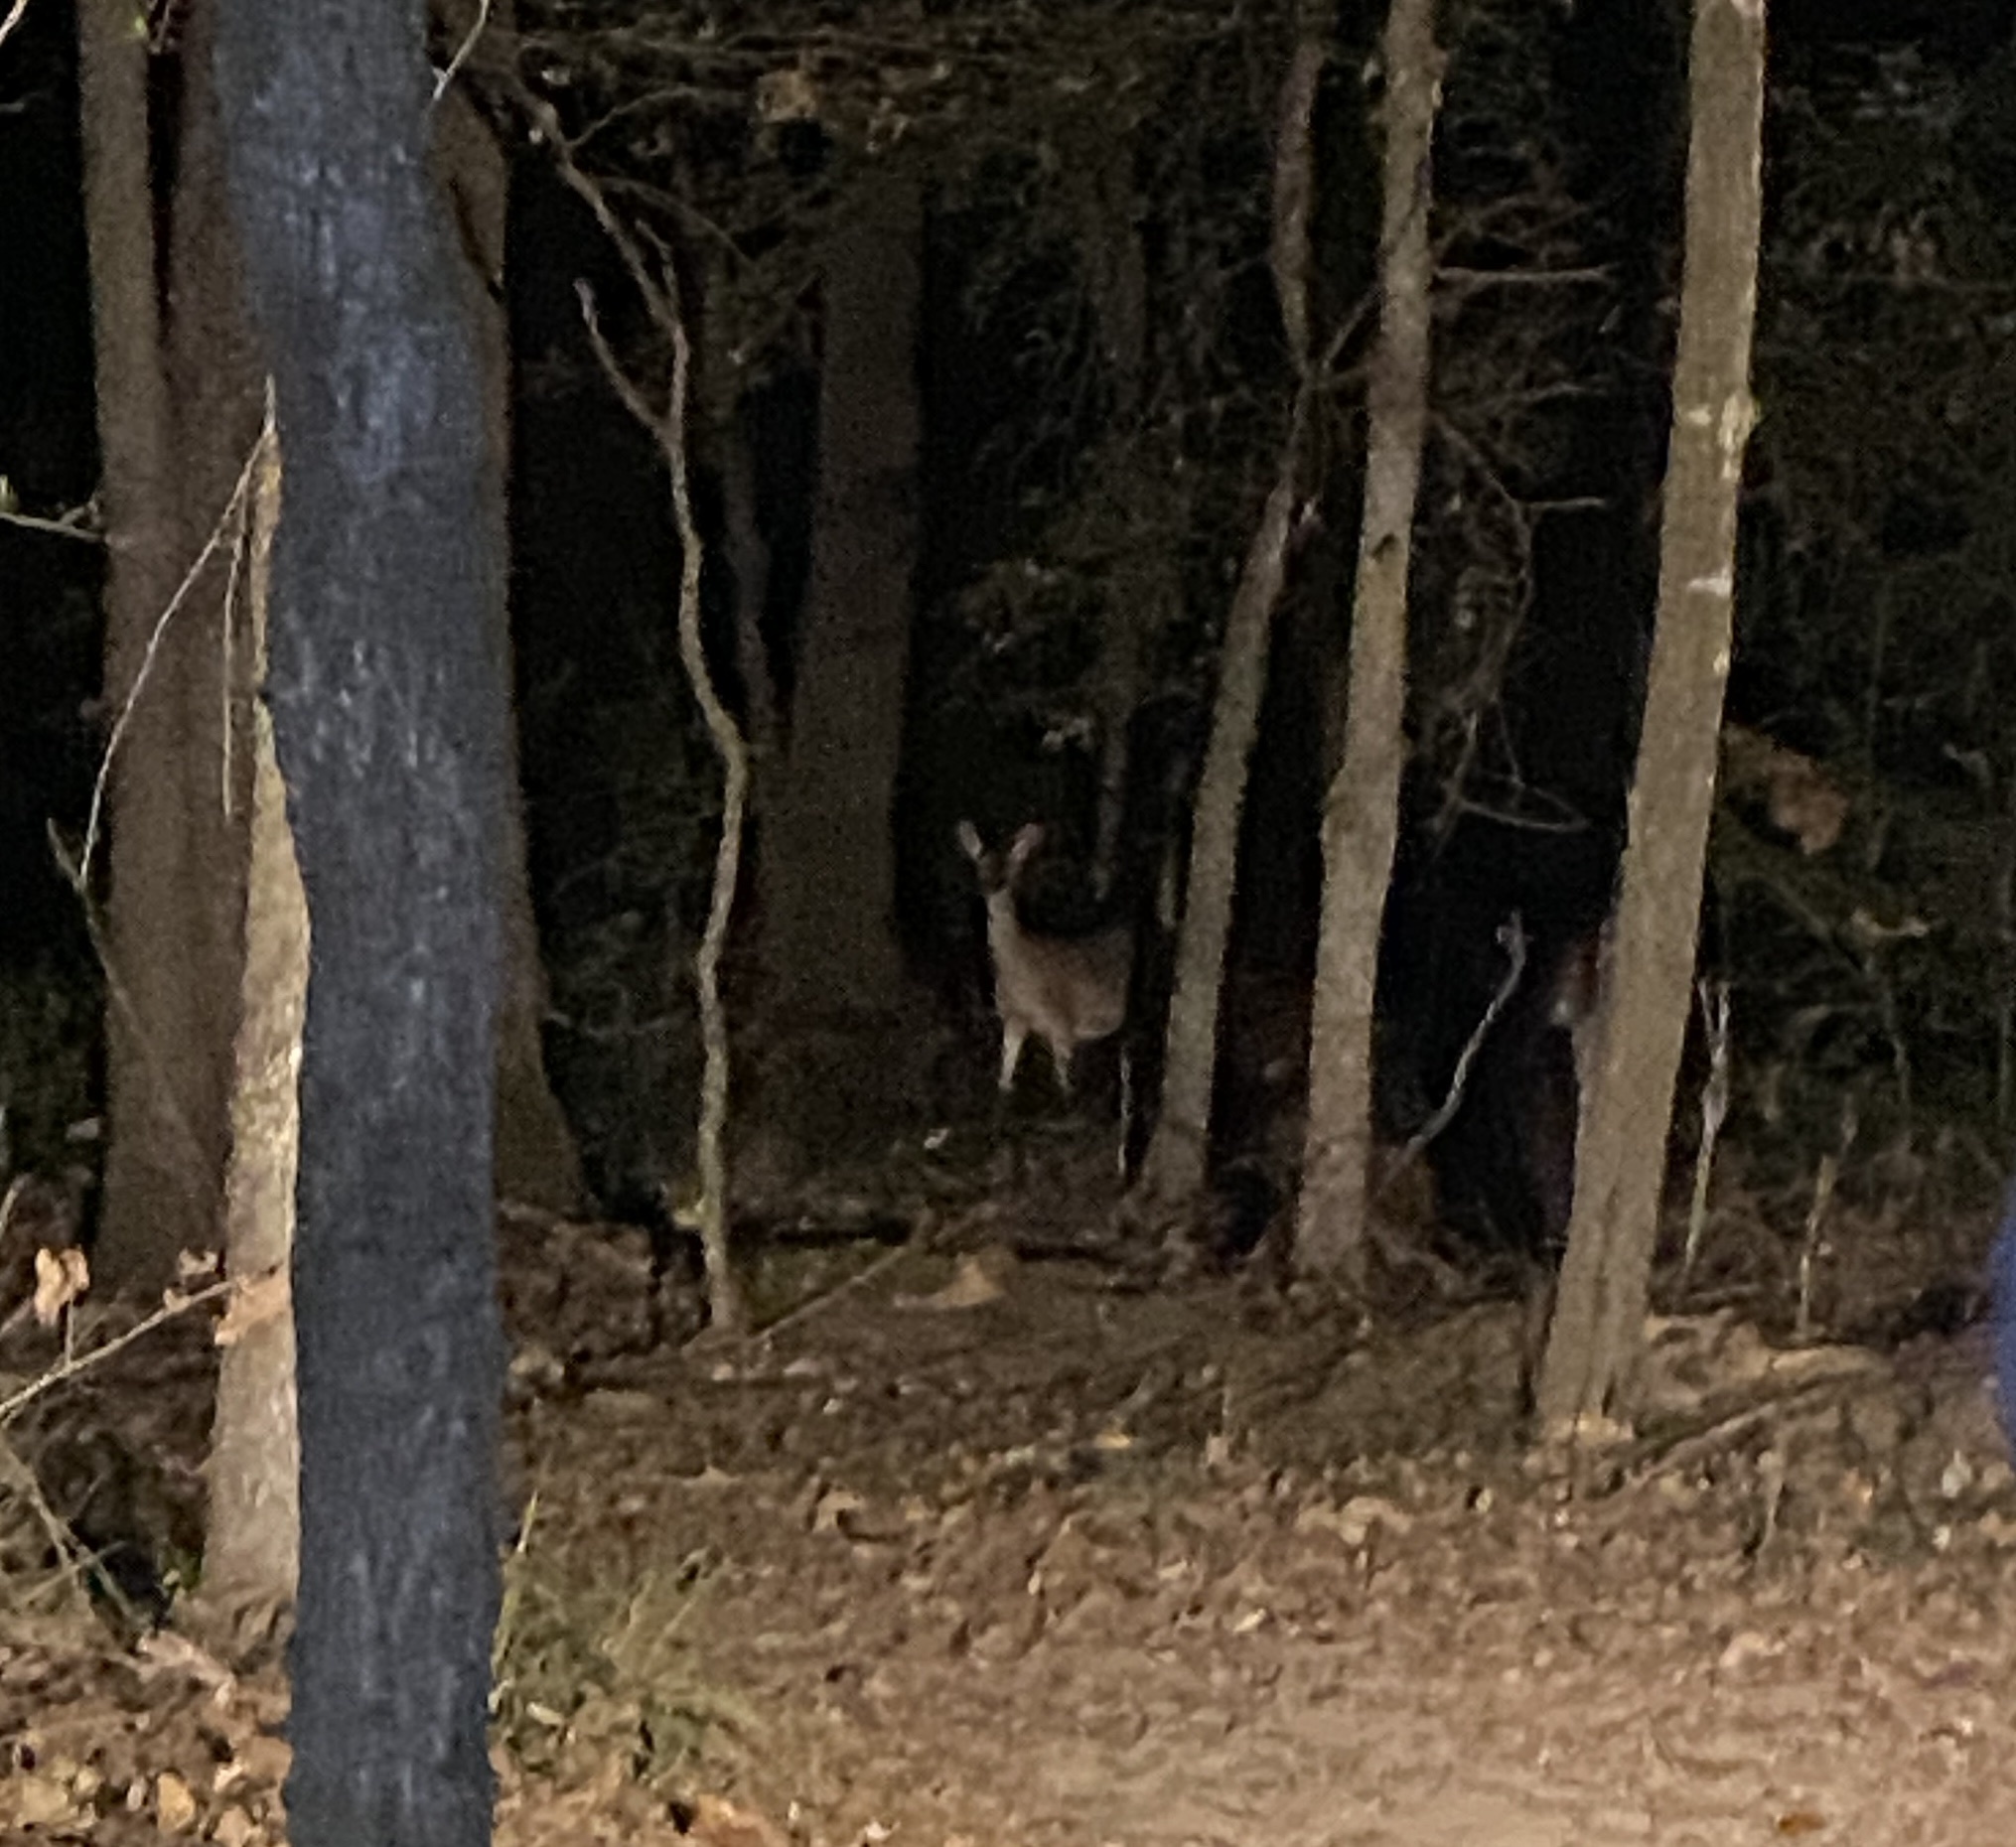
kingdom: Animalia
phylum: Chordata
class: Mammalia
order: Artiodactyla
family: Cervidae
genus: Odocoileus
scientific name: Odocoileus virginianus
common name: White-tailed deer
